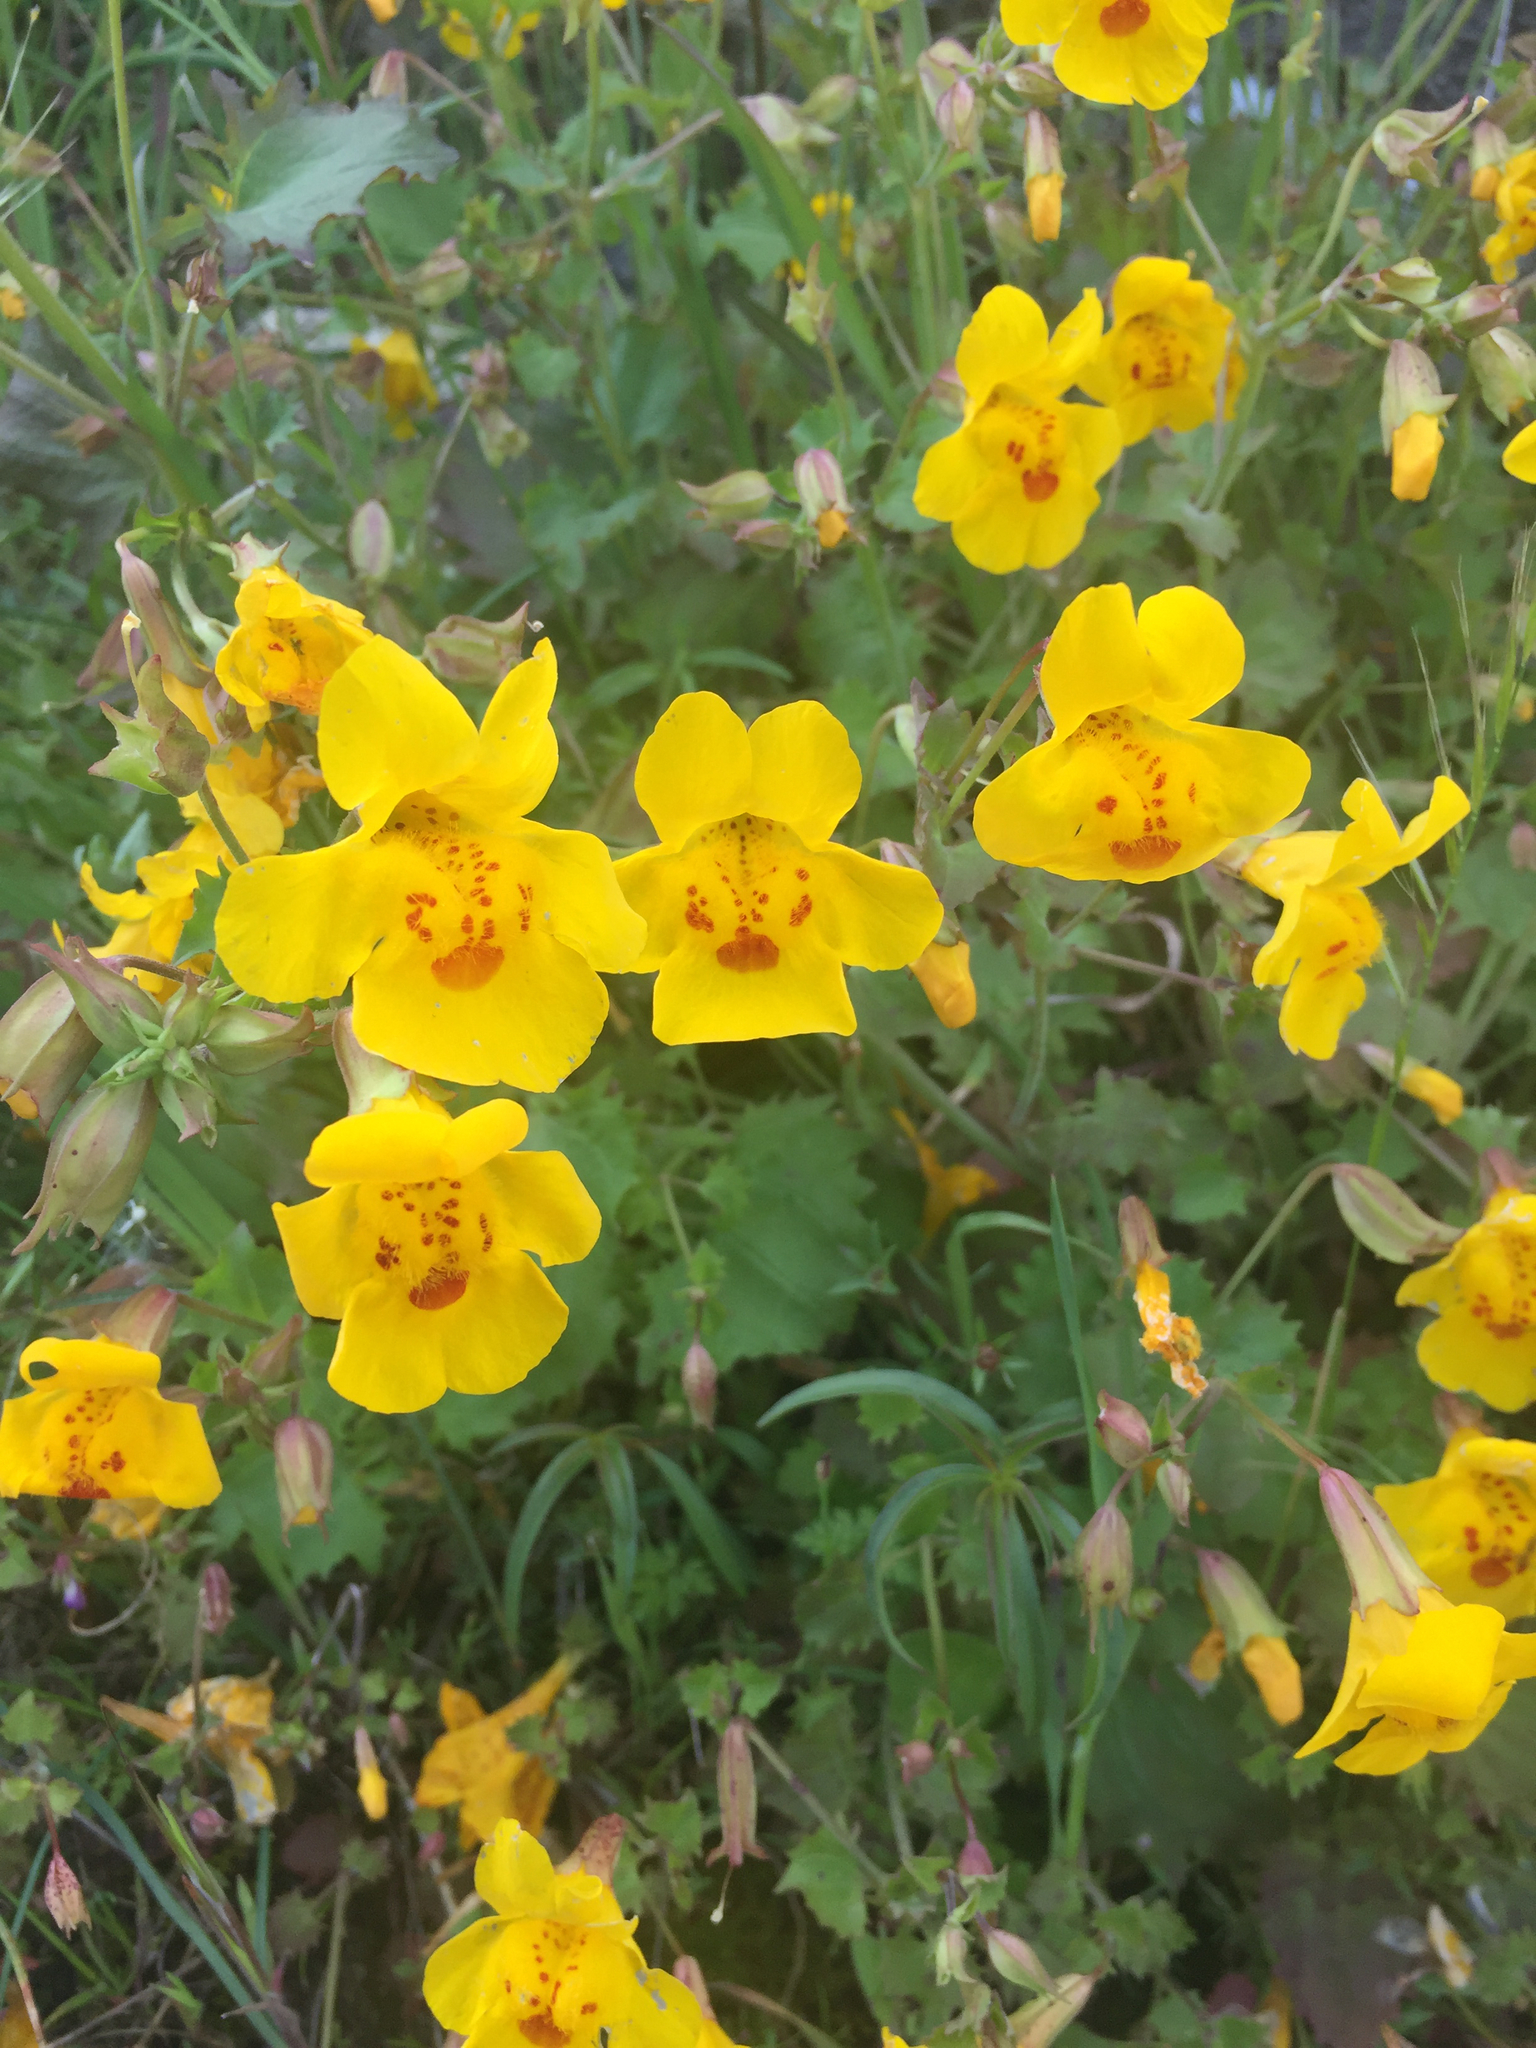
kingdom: Plantae
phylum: Tracheophyta
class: Magnoliopsida
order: Lamiales
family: Phrymaceae
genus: Erythranthe
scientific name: Erythranthe guttata
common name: Monkeyflower
